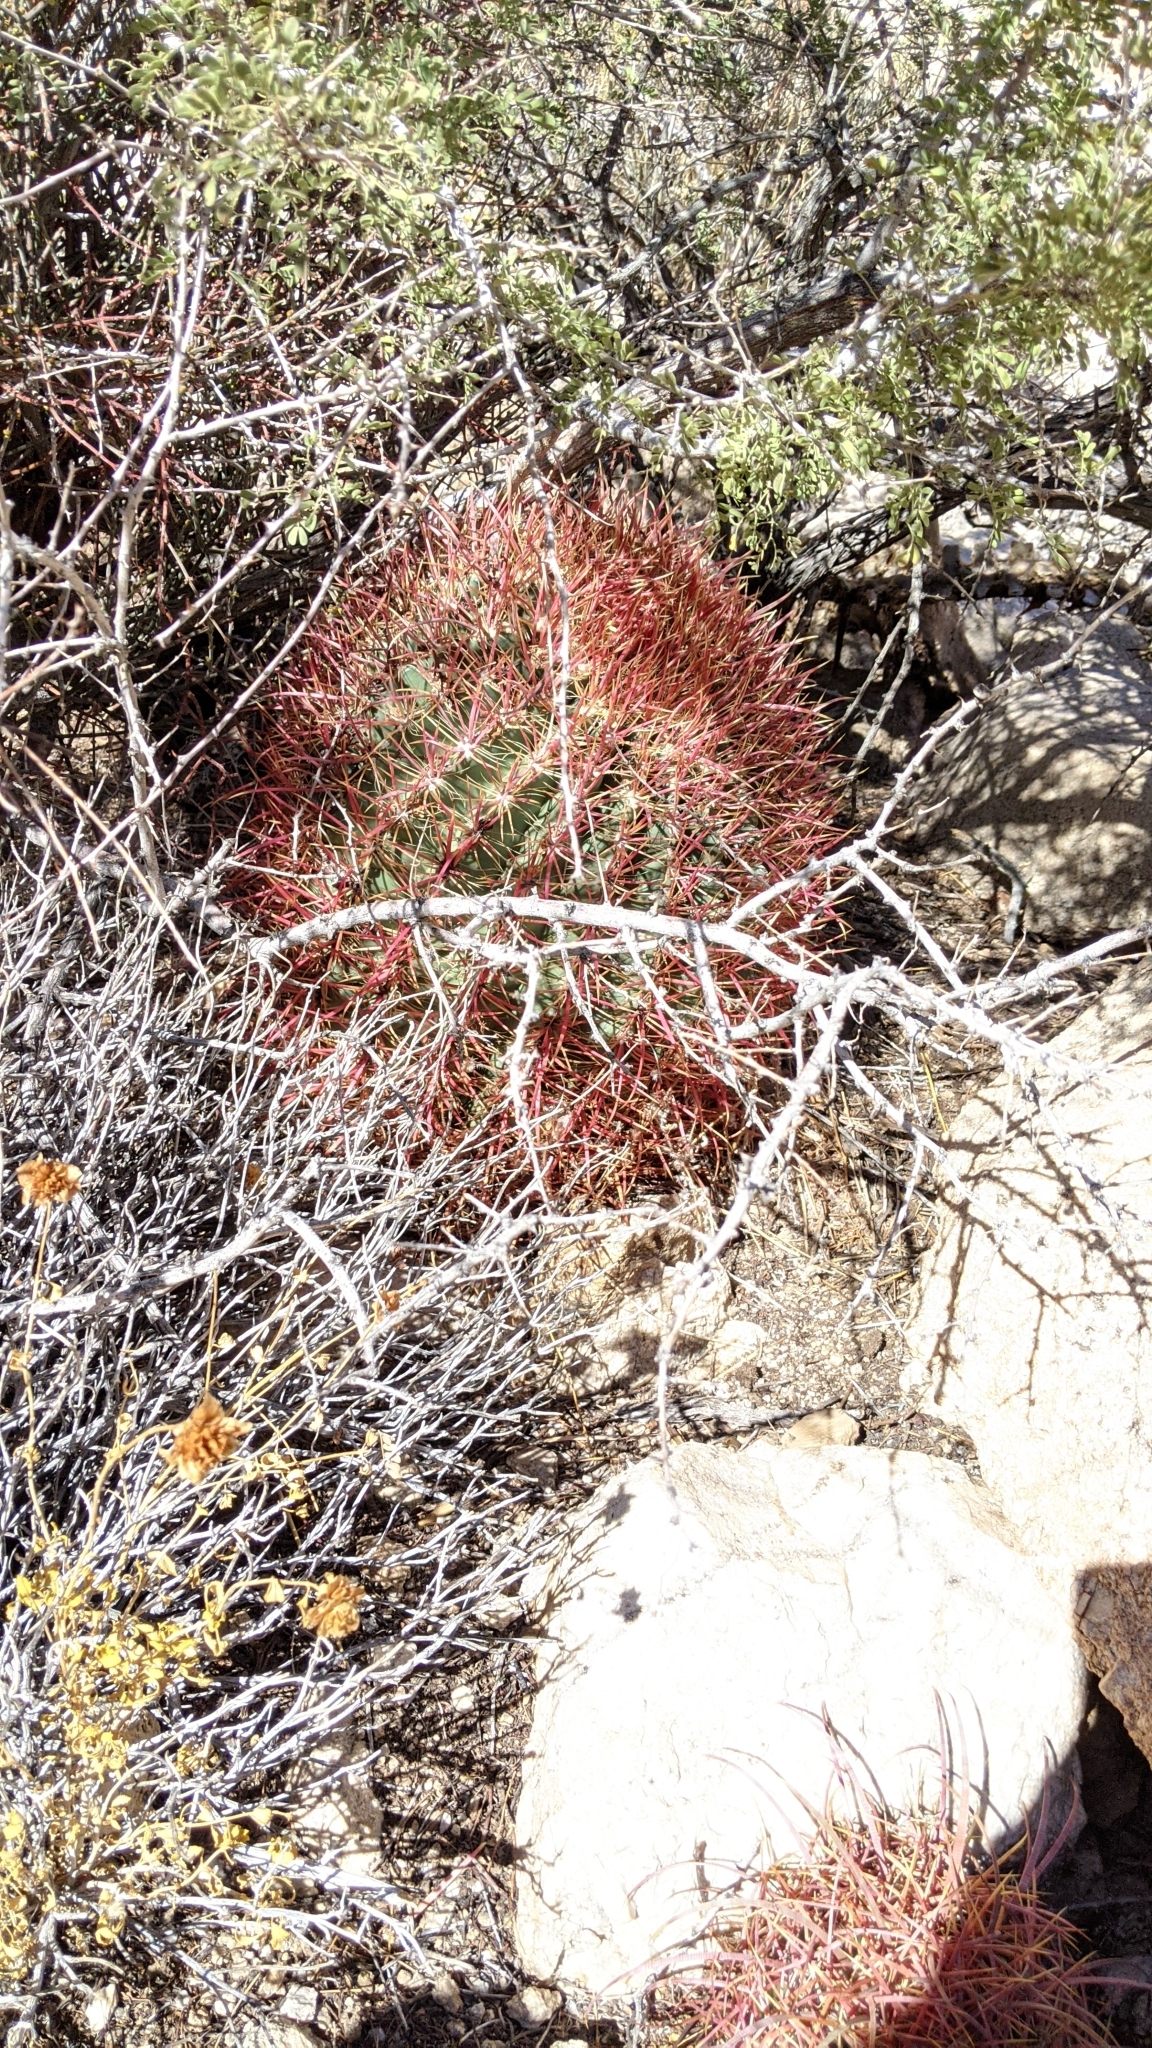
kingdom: Plantae
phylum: Tracheophyta
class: Magnoliopsida
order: Caryophyllales
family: Cactaceae
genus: Ferocactus
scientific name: Ferocactus cylindraceus
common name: California barrel cactus
